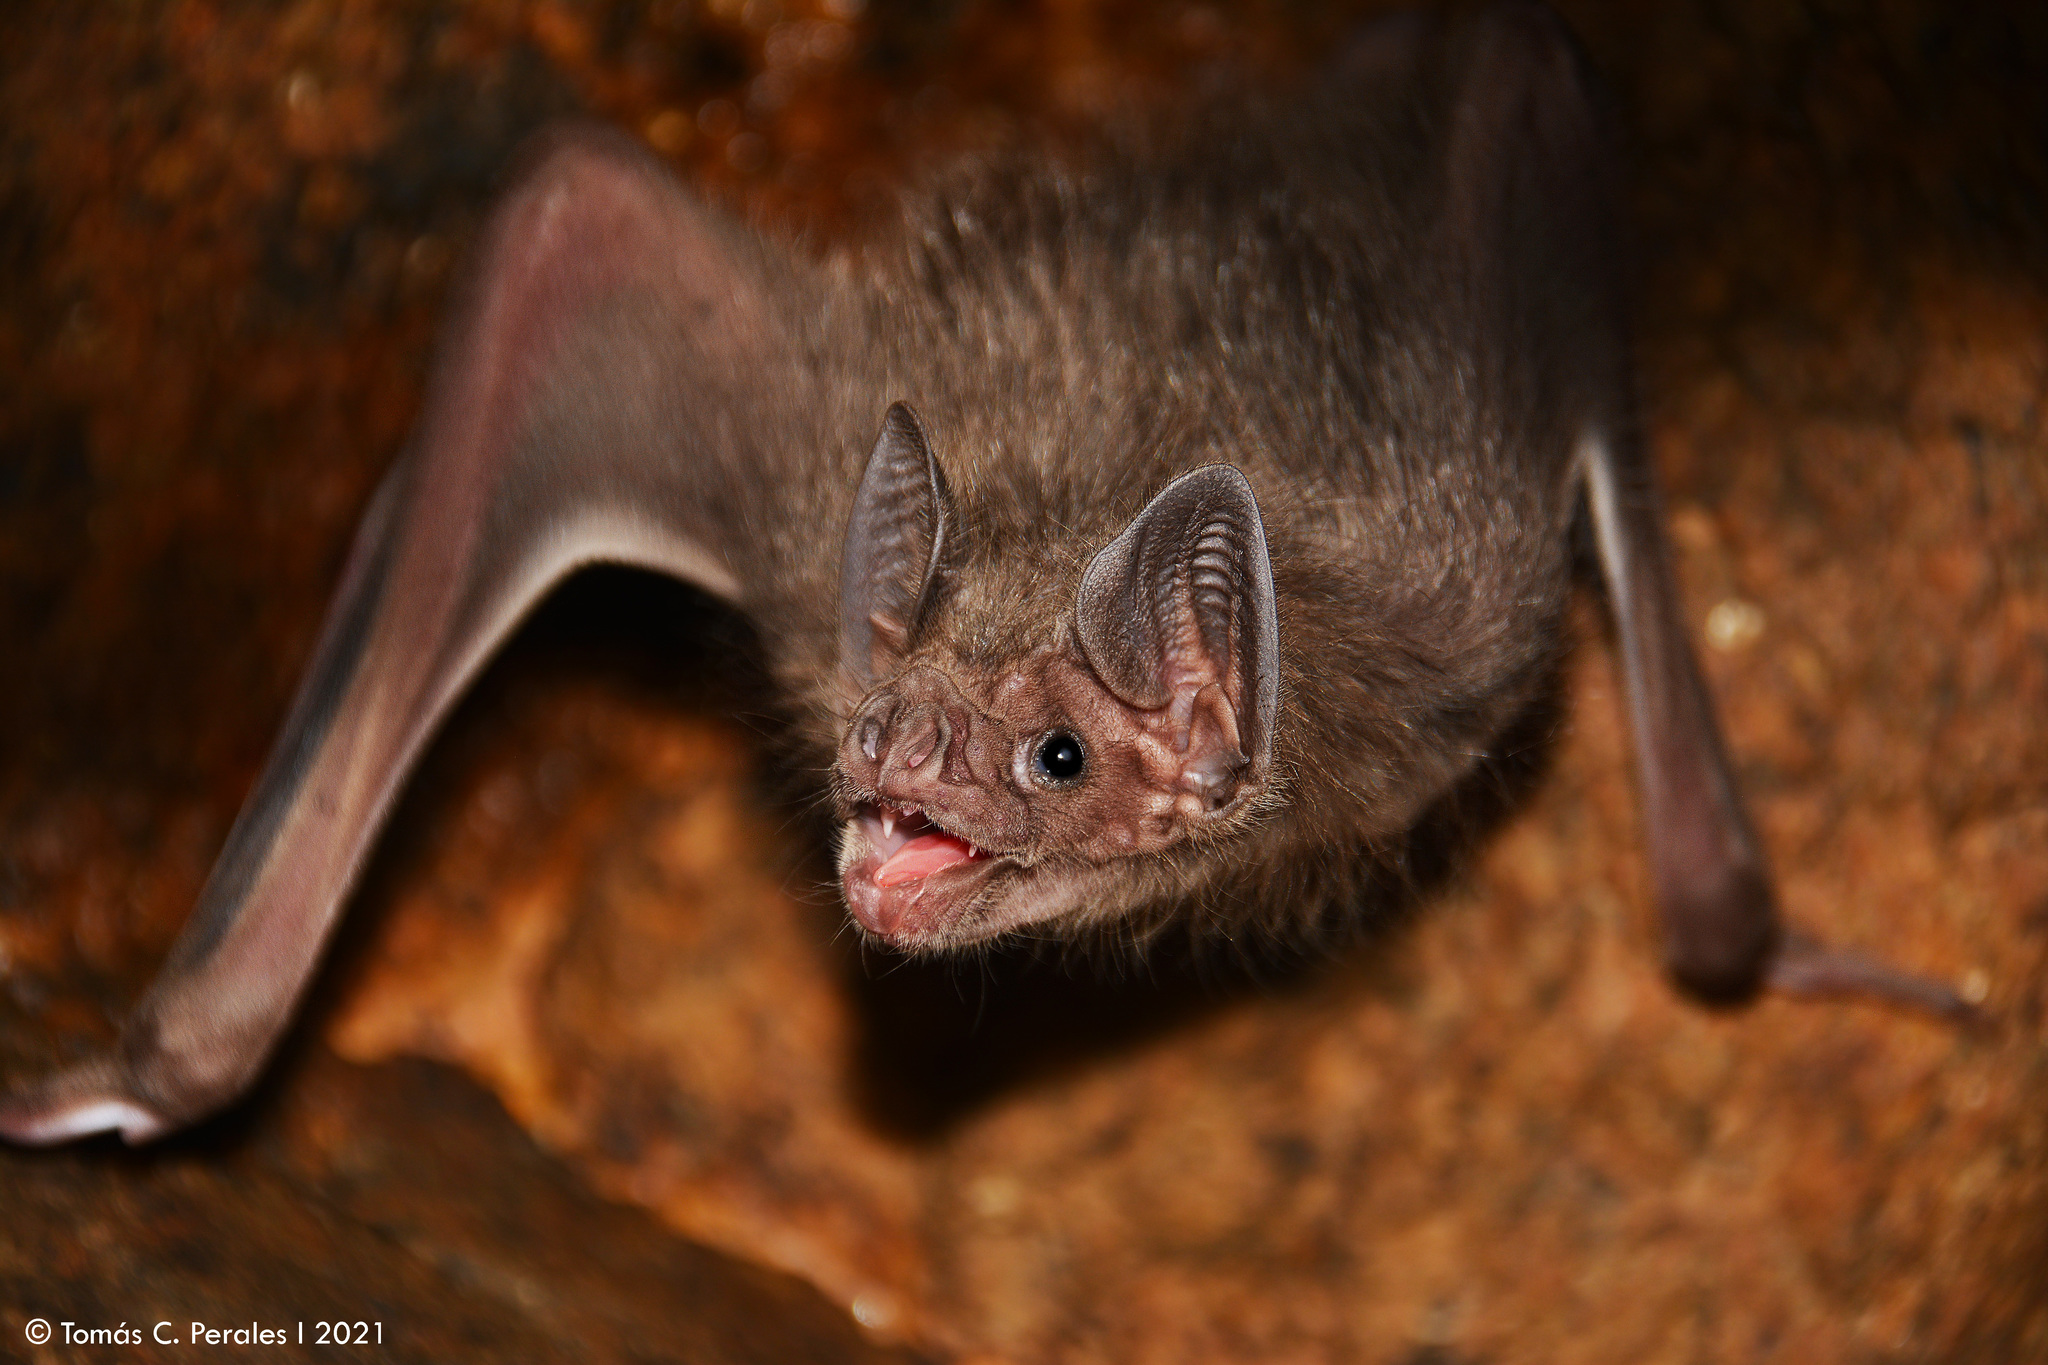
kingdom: Animalia
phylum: Chordata
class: Mammalia
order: Chiroptera
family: Phyllostomidae
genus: Desmodus
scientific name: Desmodus rotundus
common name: Common vampire bat
